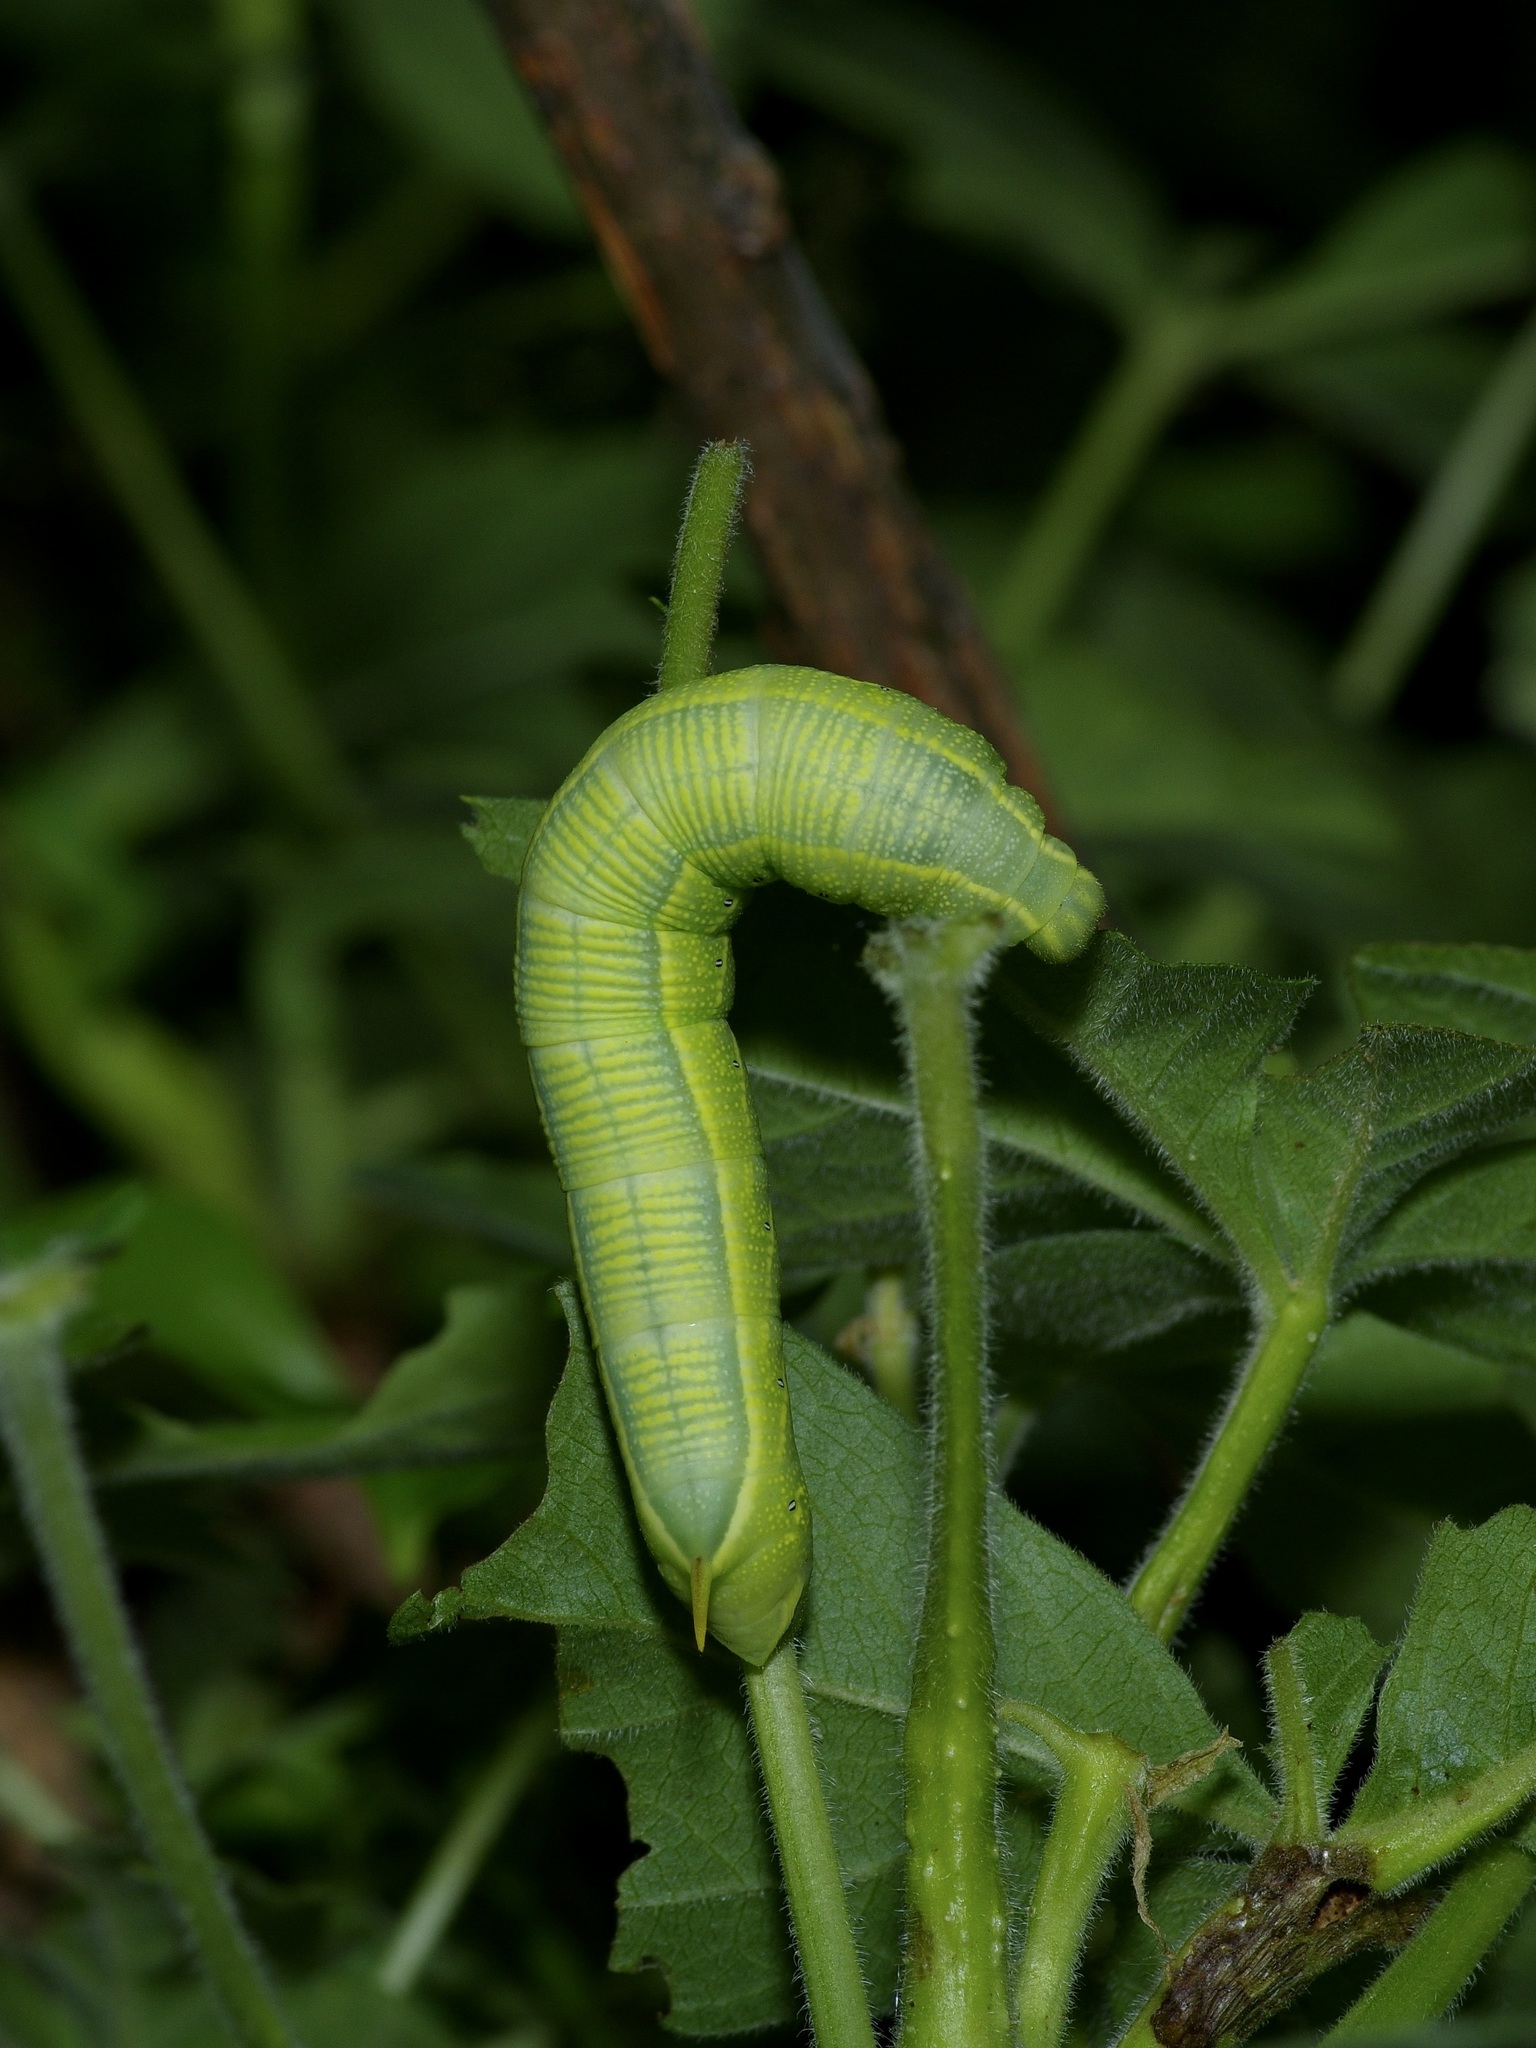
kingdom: Animalia
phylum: Arthropoda
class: Insecta
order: Lepidoptera
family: Sphingidae
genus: Deidamia
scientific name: Deidamia inscriptum
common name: Lettered sphinx
